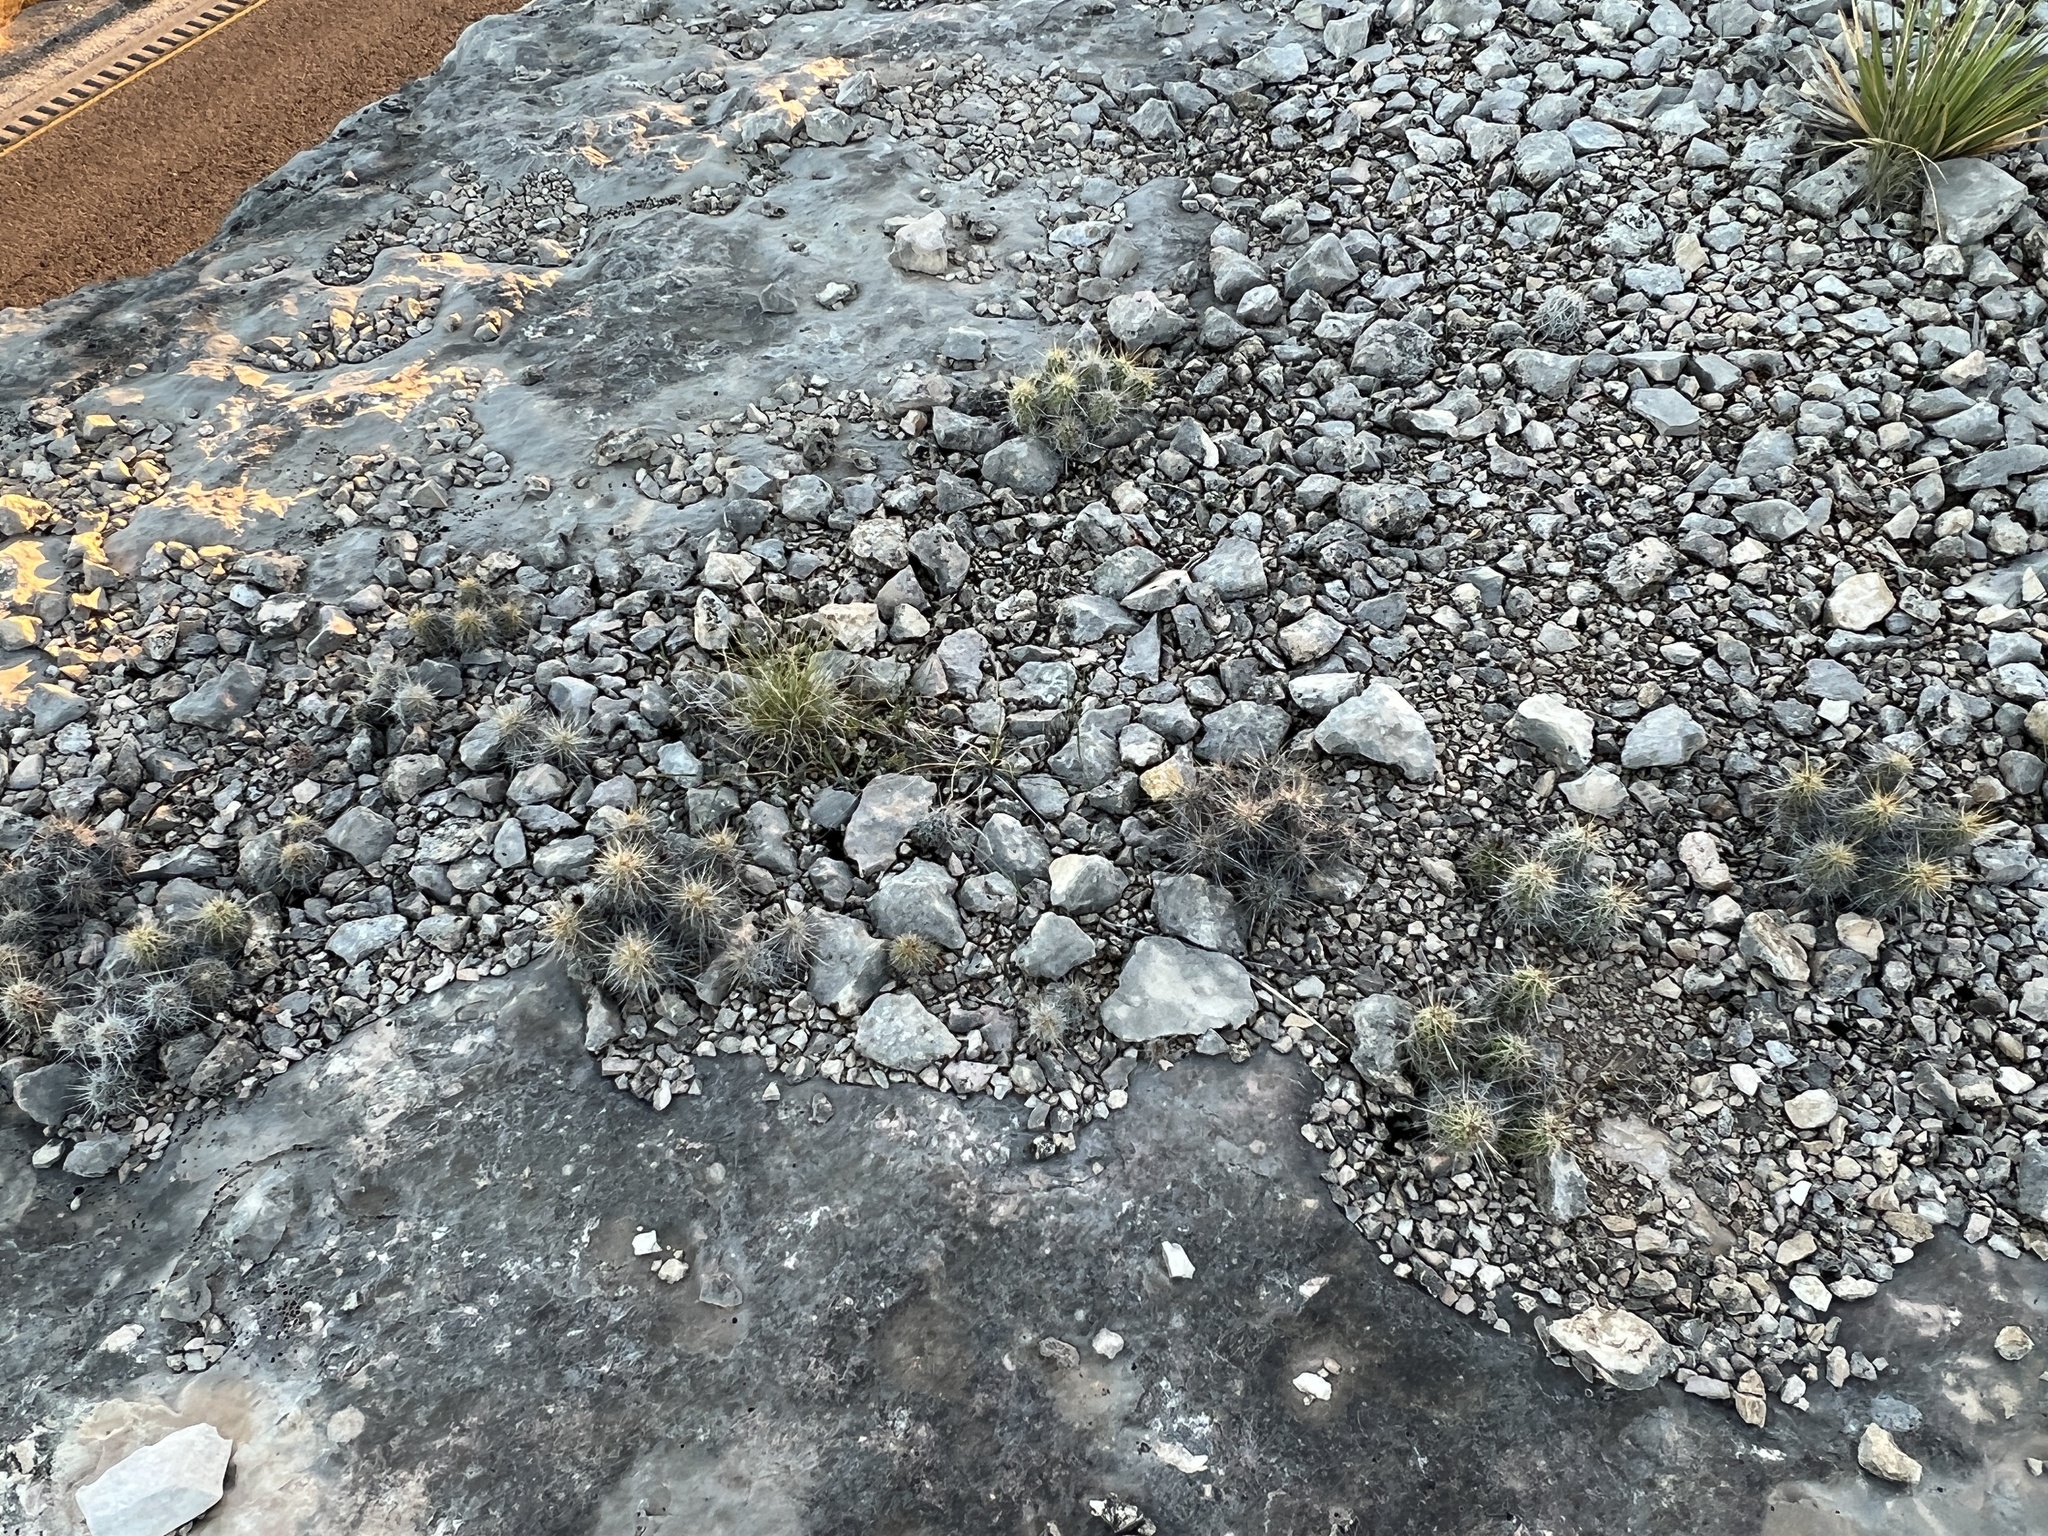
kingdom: Plantae
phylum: Tracheophyta
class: Magnoliopsida
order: Caryophyllales
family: Cactaceae
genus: Echinocereus
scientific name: Echinocereus enneacanthus
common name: Pitaya
